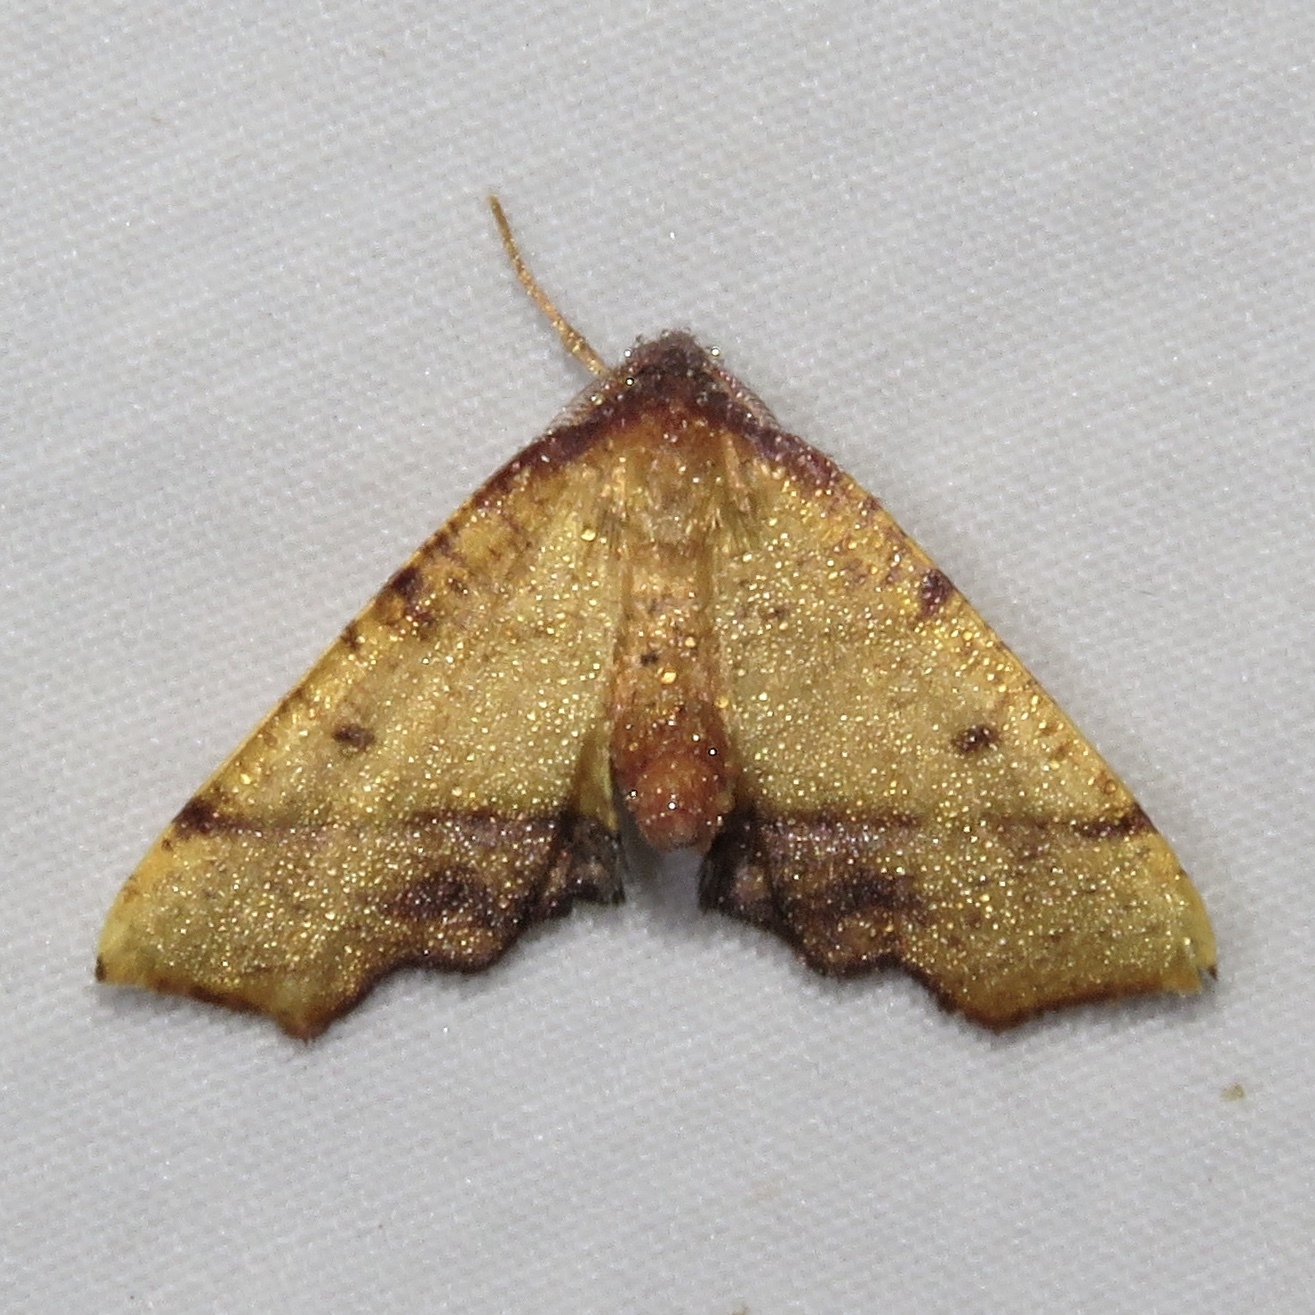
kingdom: Animalia
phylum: Arthropoda
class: Insecta
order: Lepidoptera
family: Geometridae
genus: Plagodis
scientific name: Plagodis phlogosaria
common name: Straight-lined plagodis
